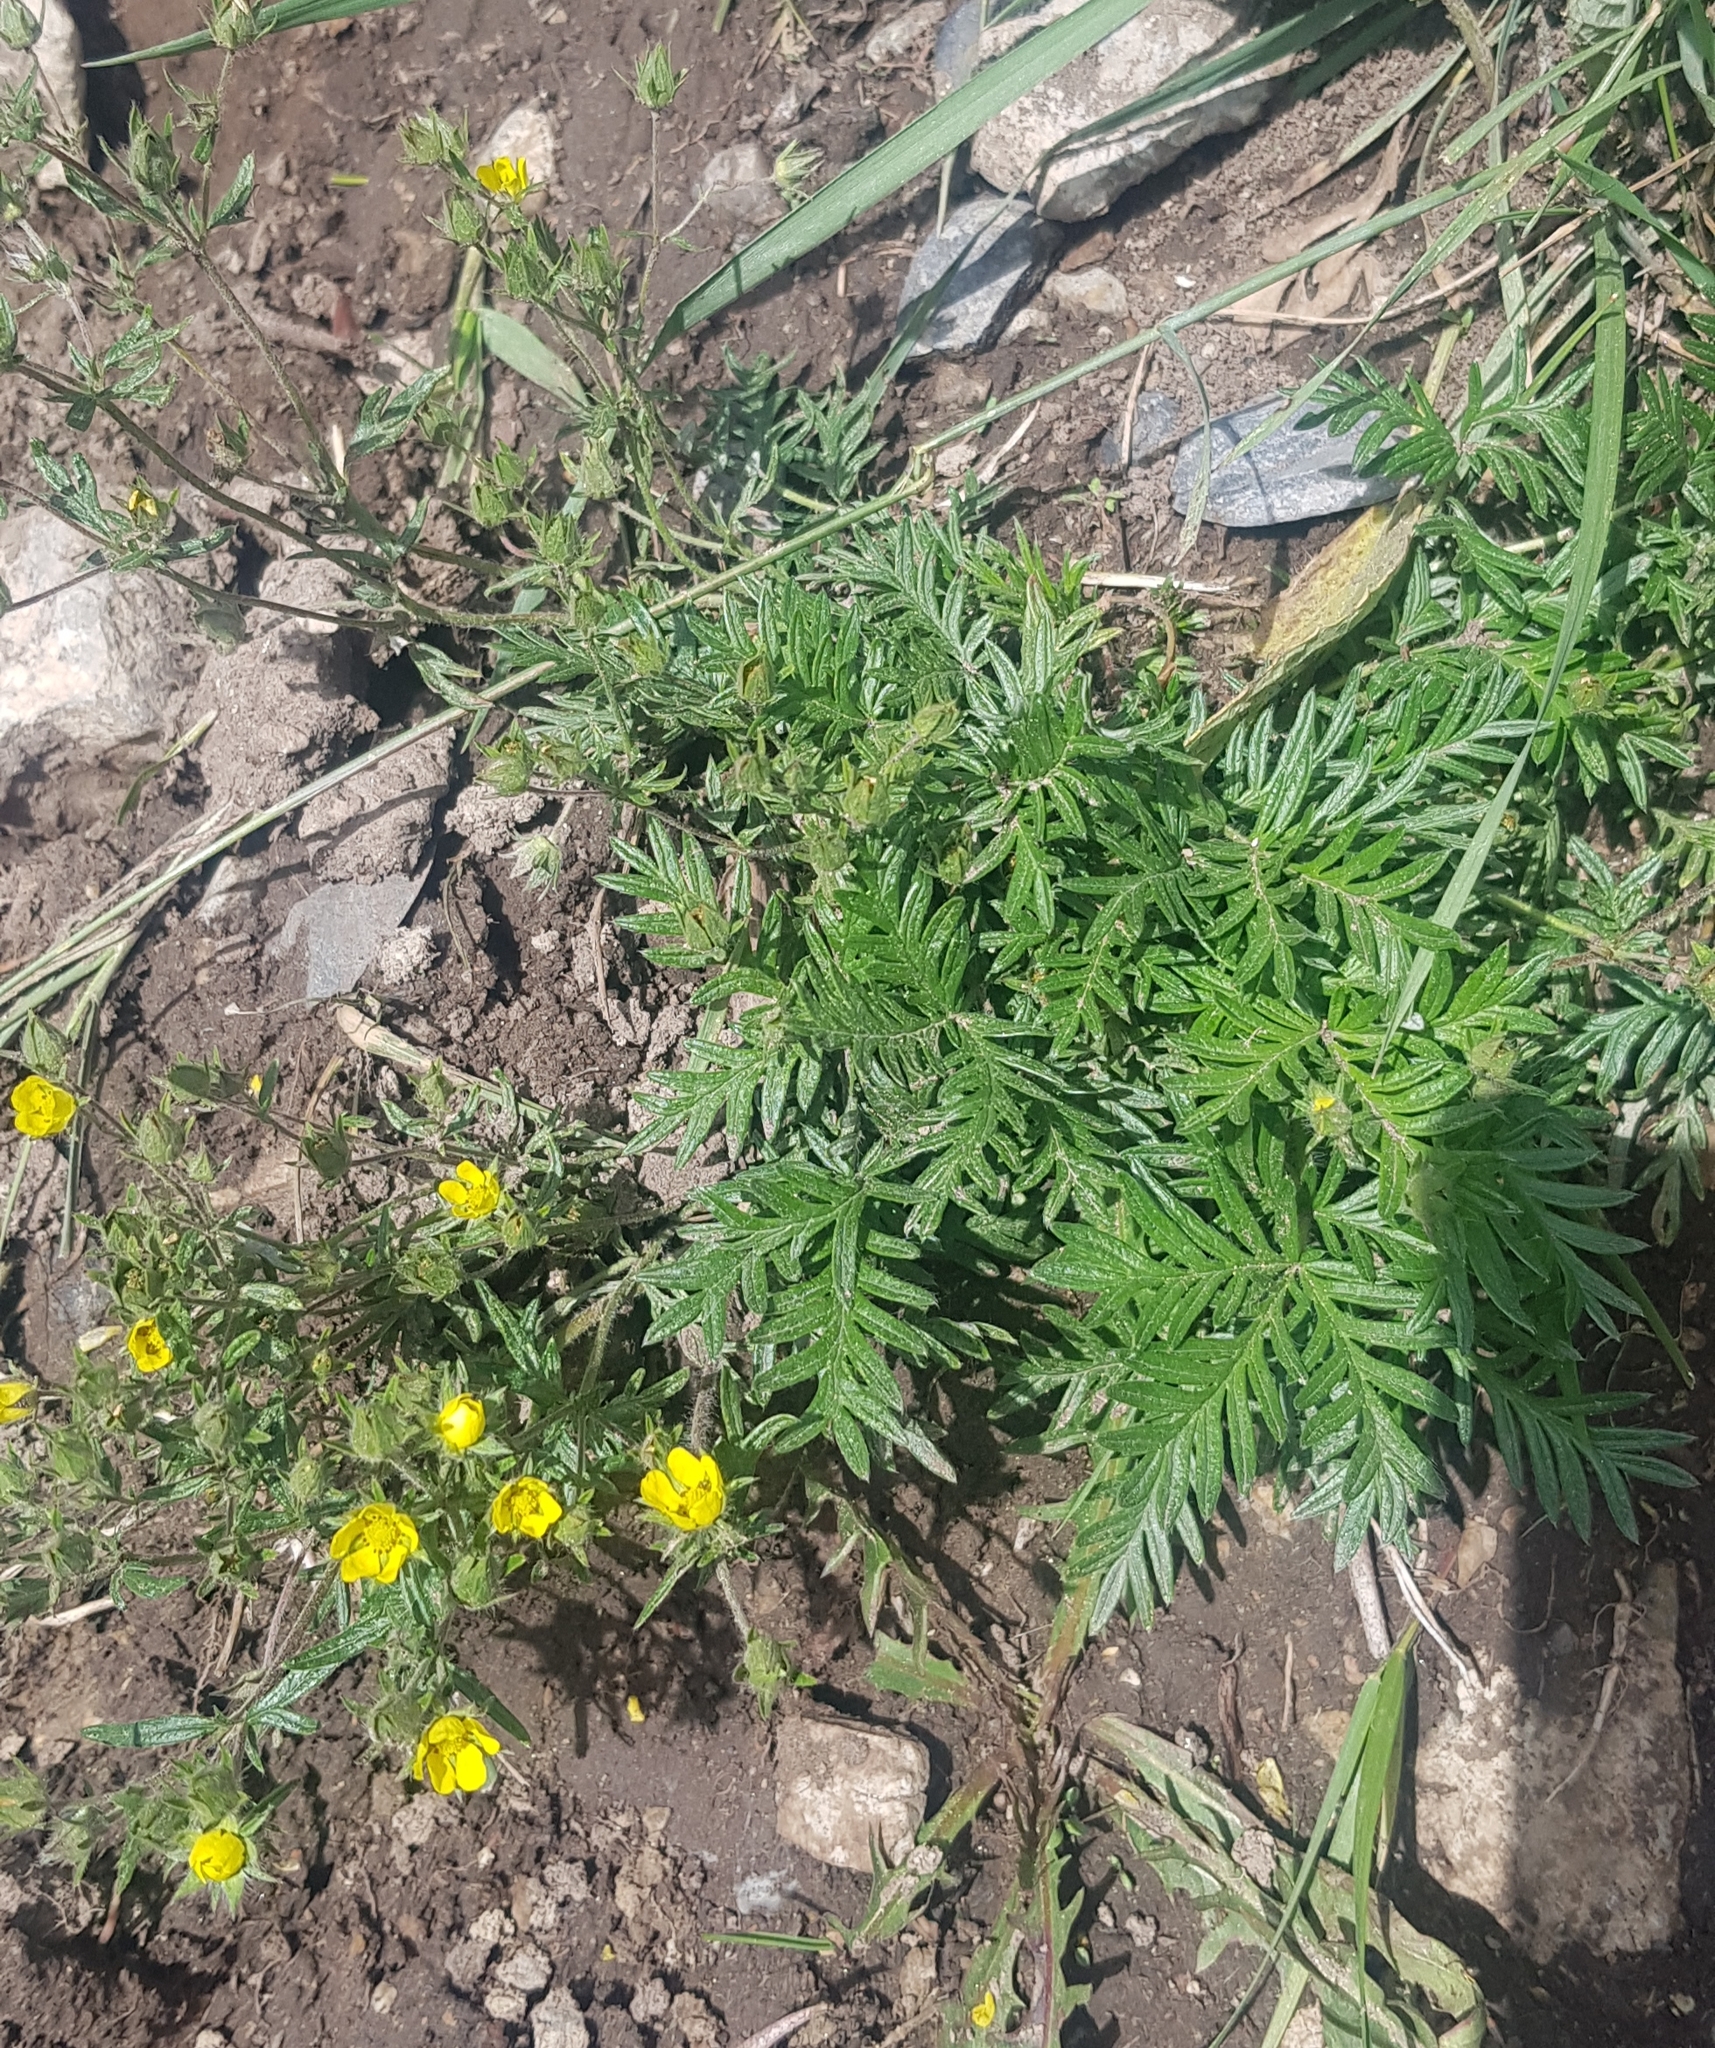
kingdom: Plantae
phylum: Tracheophyta
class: Magnoliopsida
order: Rosales
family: Rosaceae
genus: Potentilla
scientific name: Potentilla tergemina
